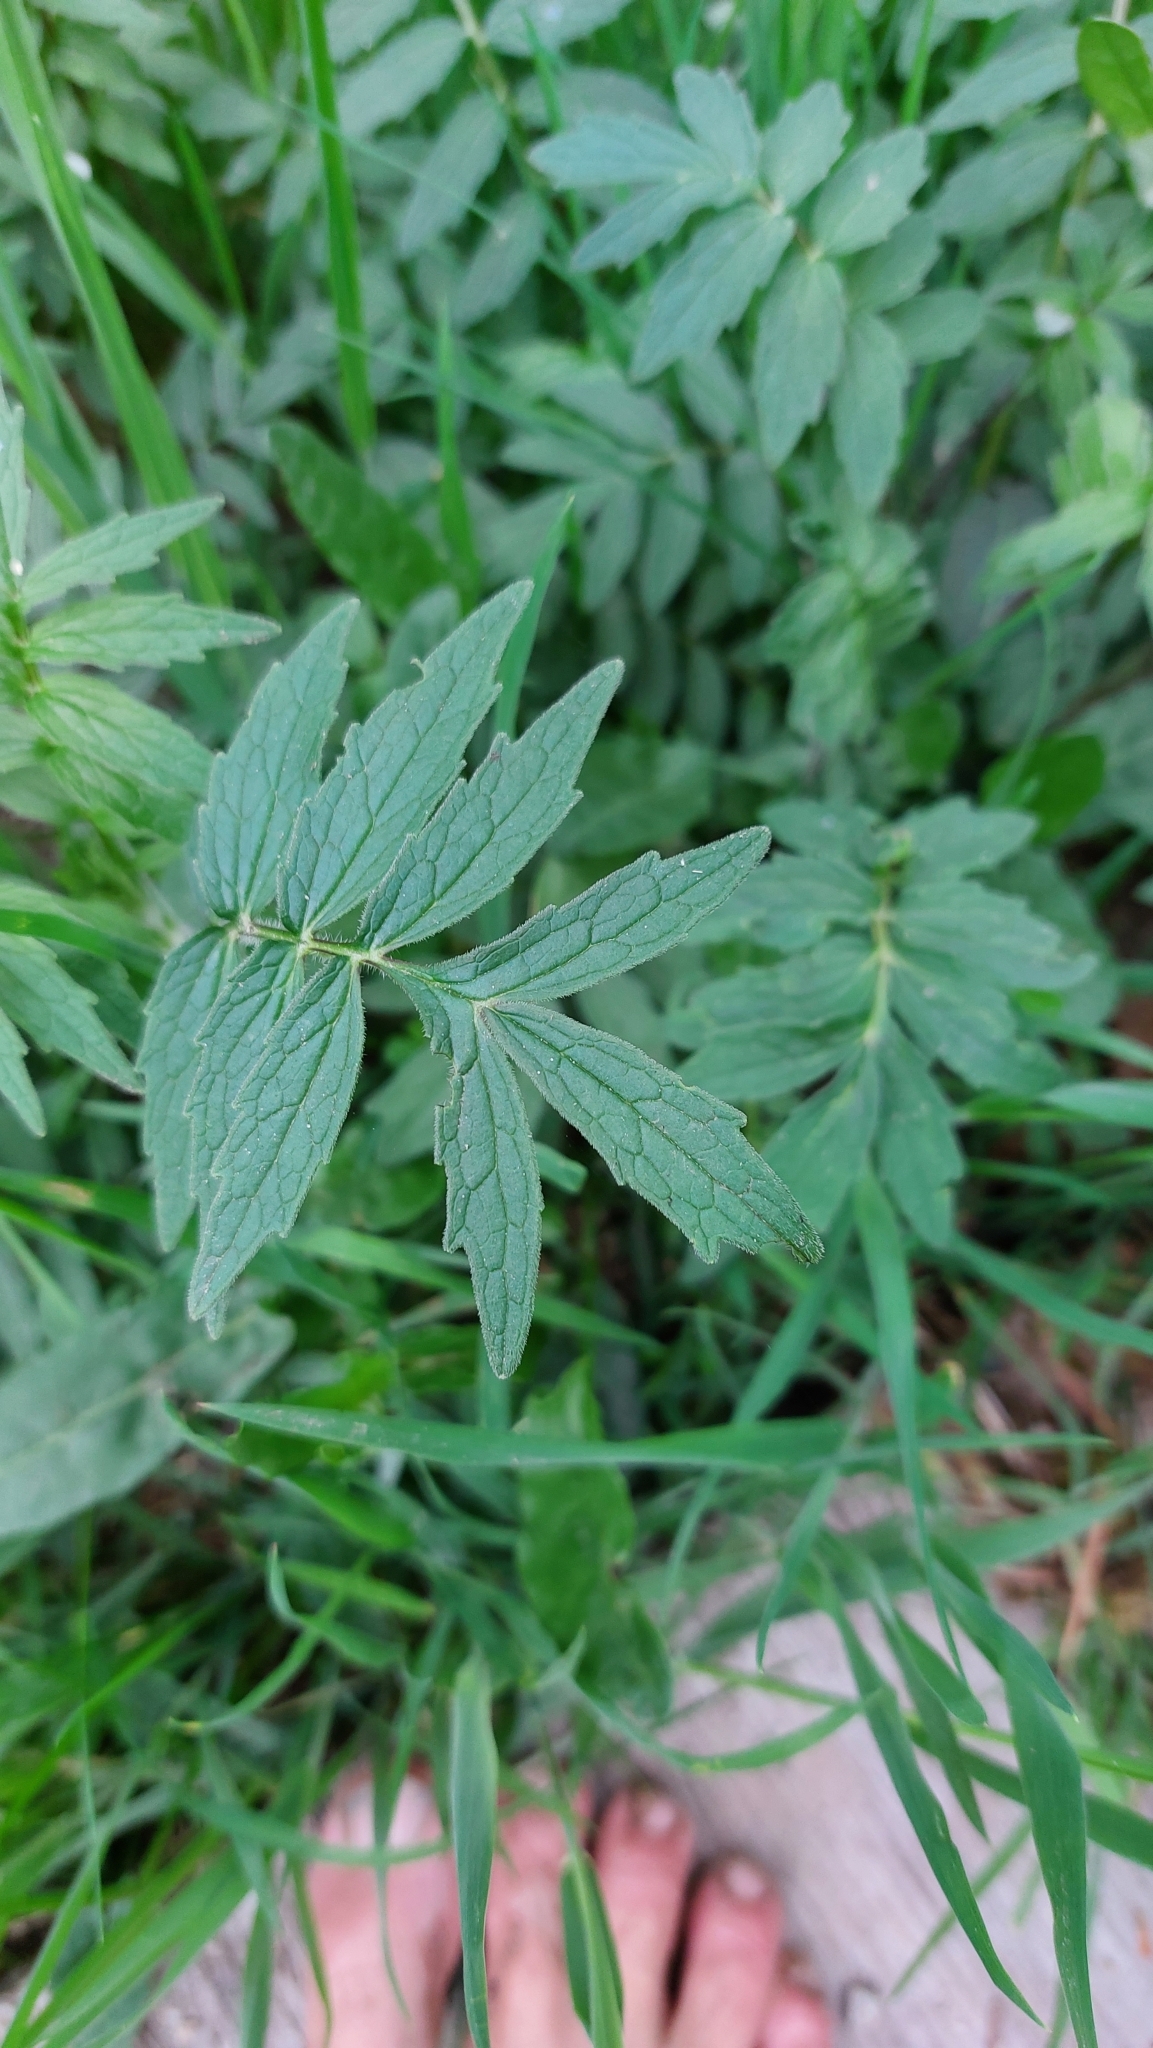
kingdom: Plantae
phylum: Tracheophyta
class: Magnoliopsida
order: Dipsacales
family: Caprifoliaceae
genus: Valeriana
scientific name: Valeriana officinalis
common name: Common valerian
